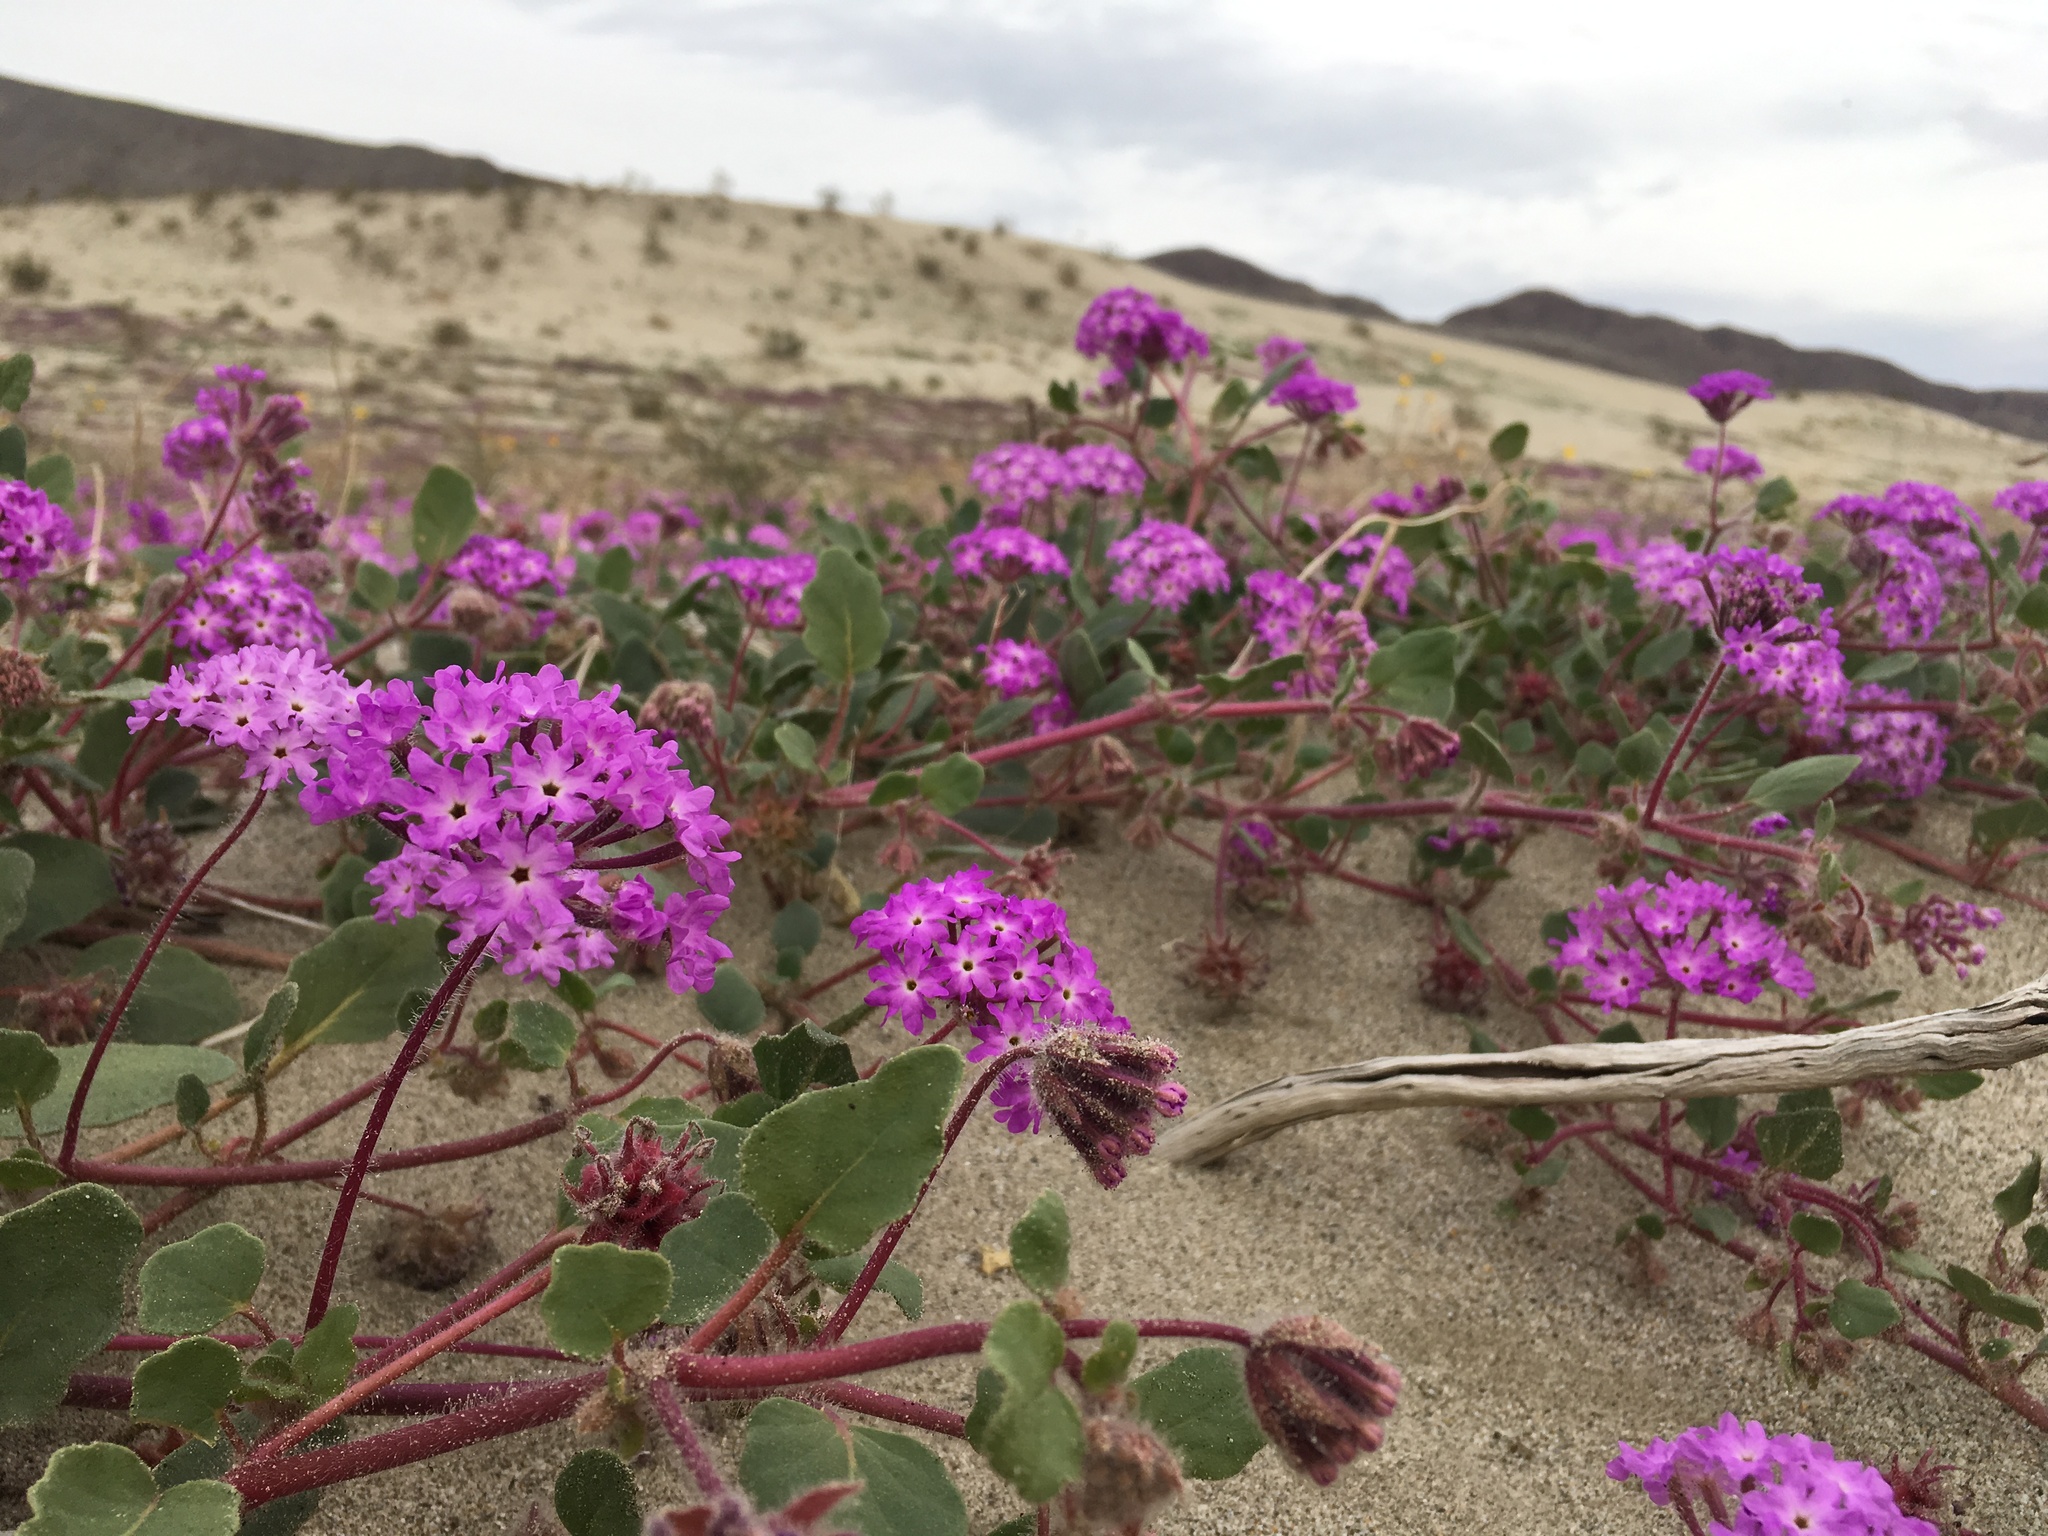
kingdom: Plantae
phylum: Tracheophyta
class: Magnoliopsida
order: Caryophyllales
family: Nyctaginaceae
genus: Abronia
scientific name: Abronia villosa
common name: Desert sand-verbena
